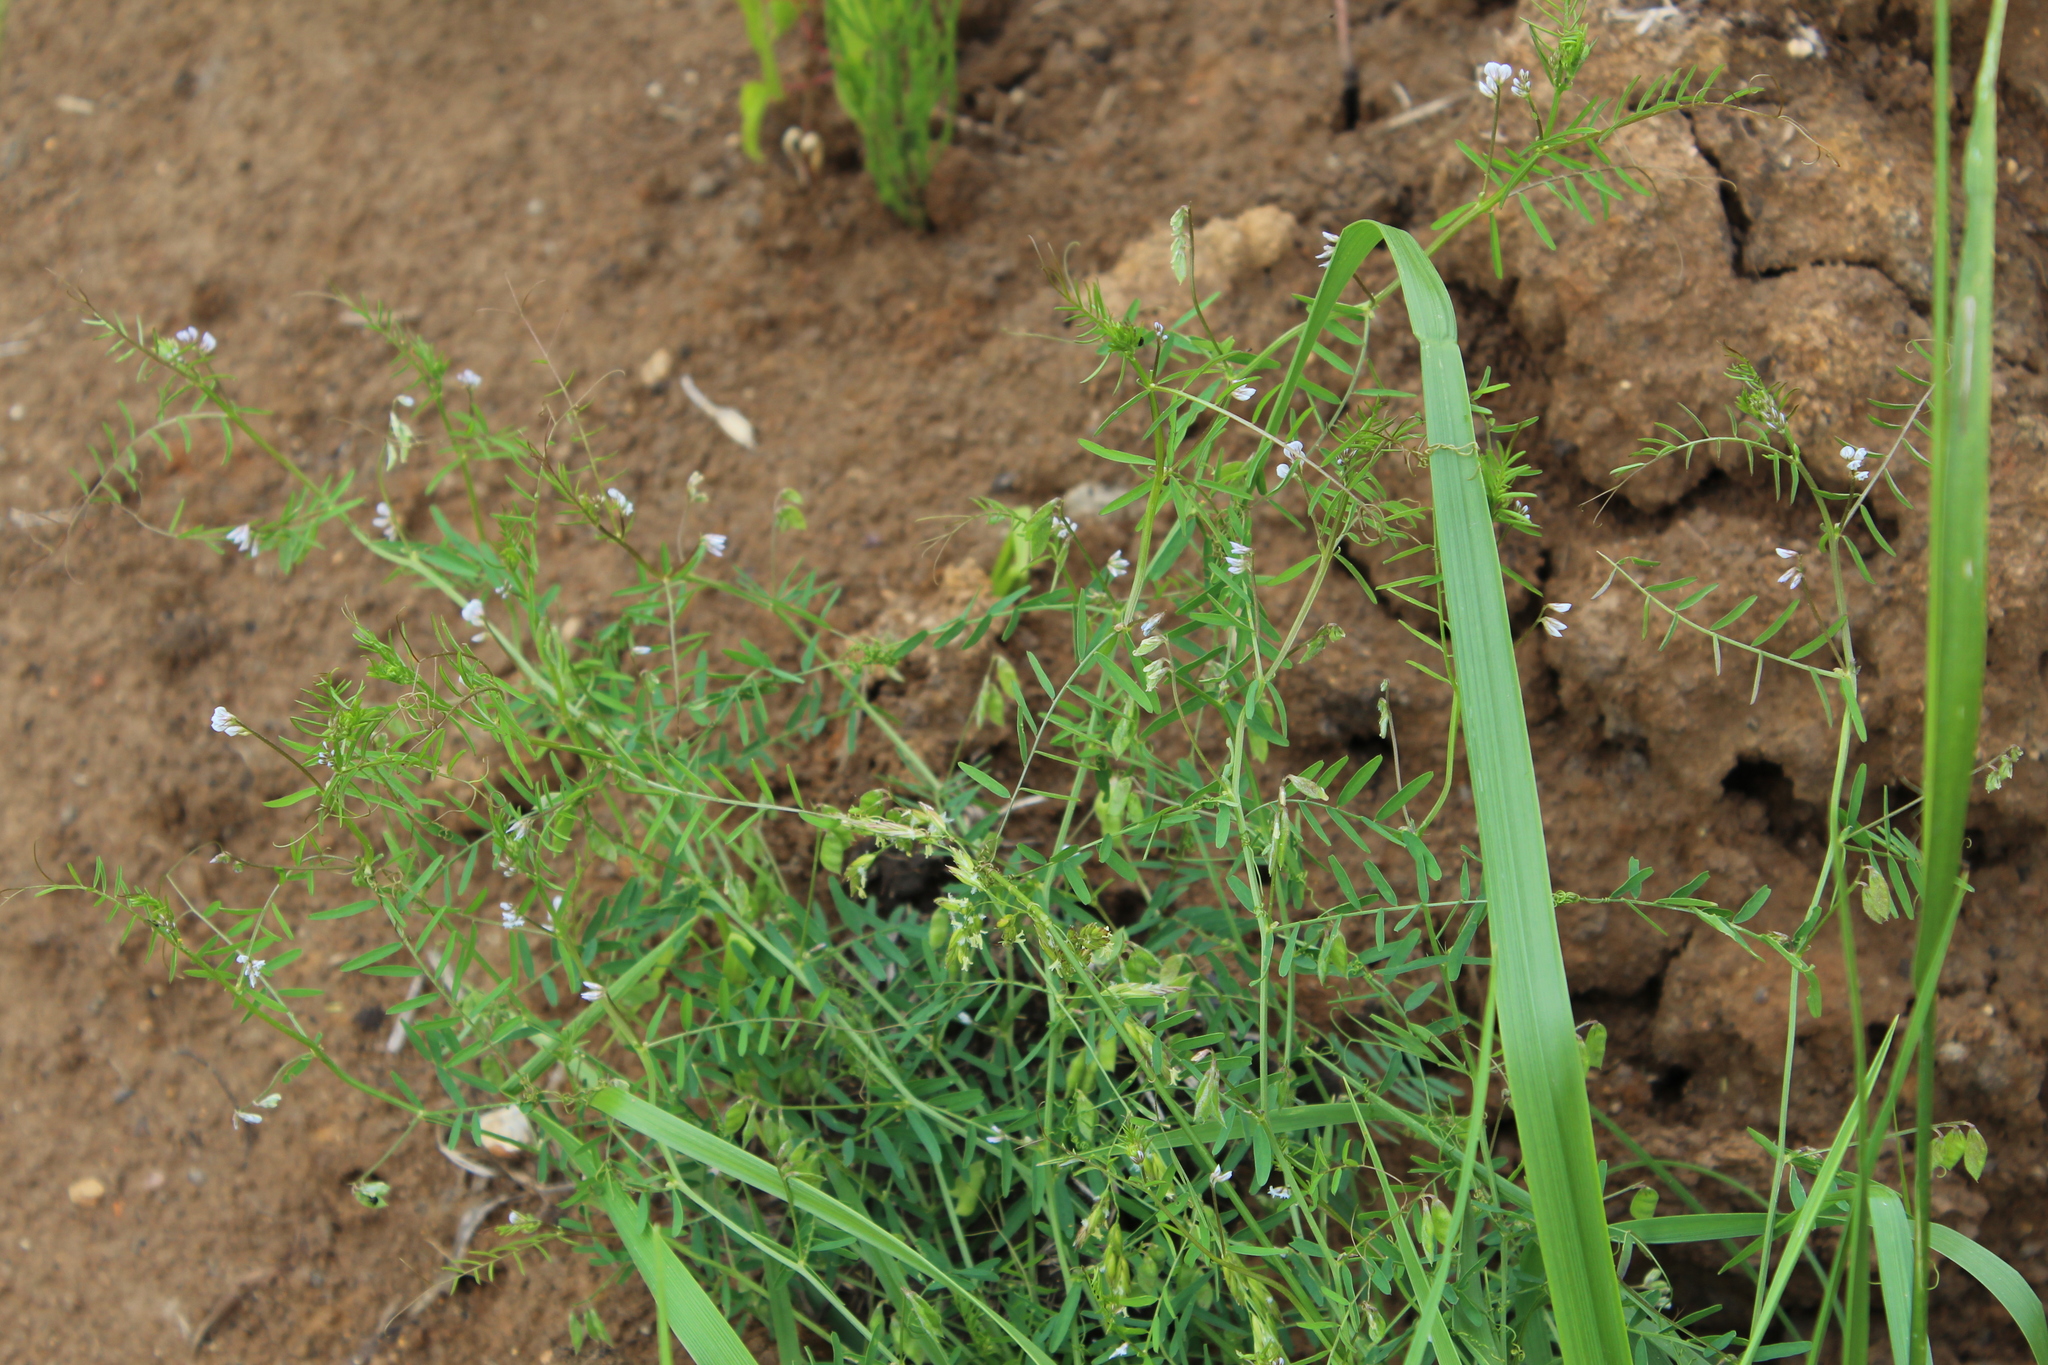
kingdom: Plantae
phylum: Tracheophyta
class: Magnoliopsida
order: Fabales
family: Fabaceae
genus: Vicia
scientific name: Vicia hirsuta
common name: Tiny vetch
